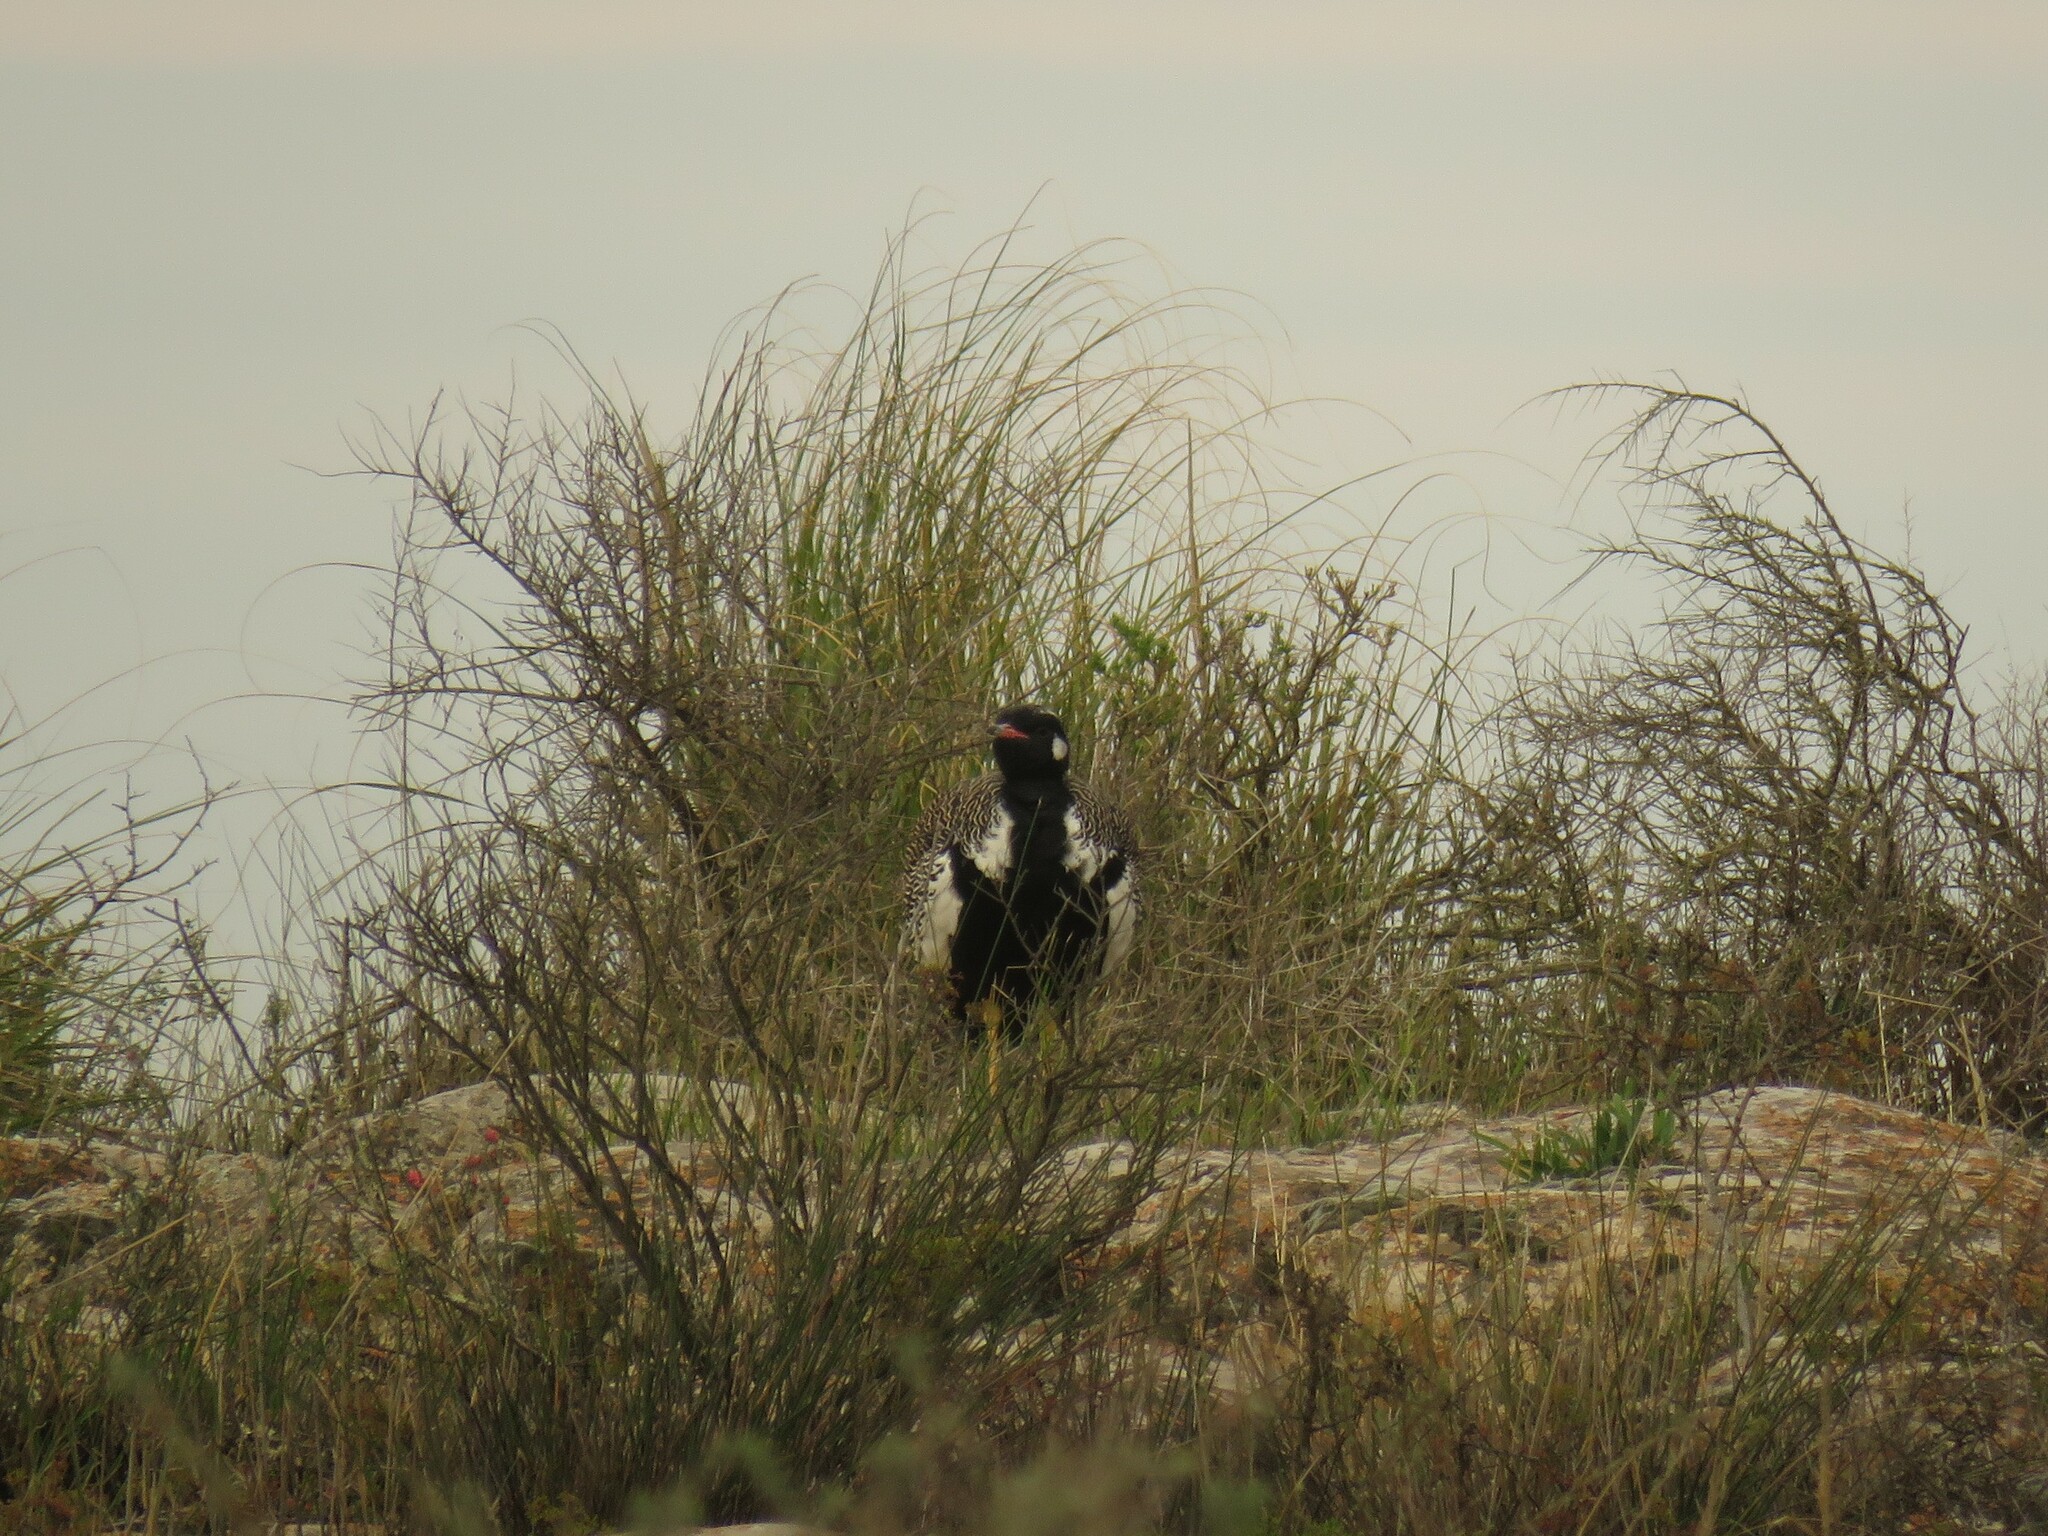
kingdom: Animalia
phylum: Chordata
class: Aves
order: Otidiformes
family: Otididae
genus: Afrotis
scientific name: Afrotis afra
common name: Southern black korhaan
